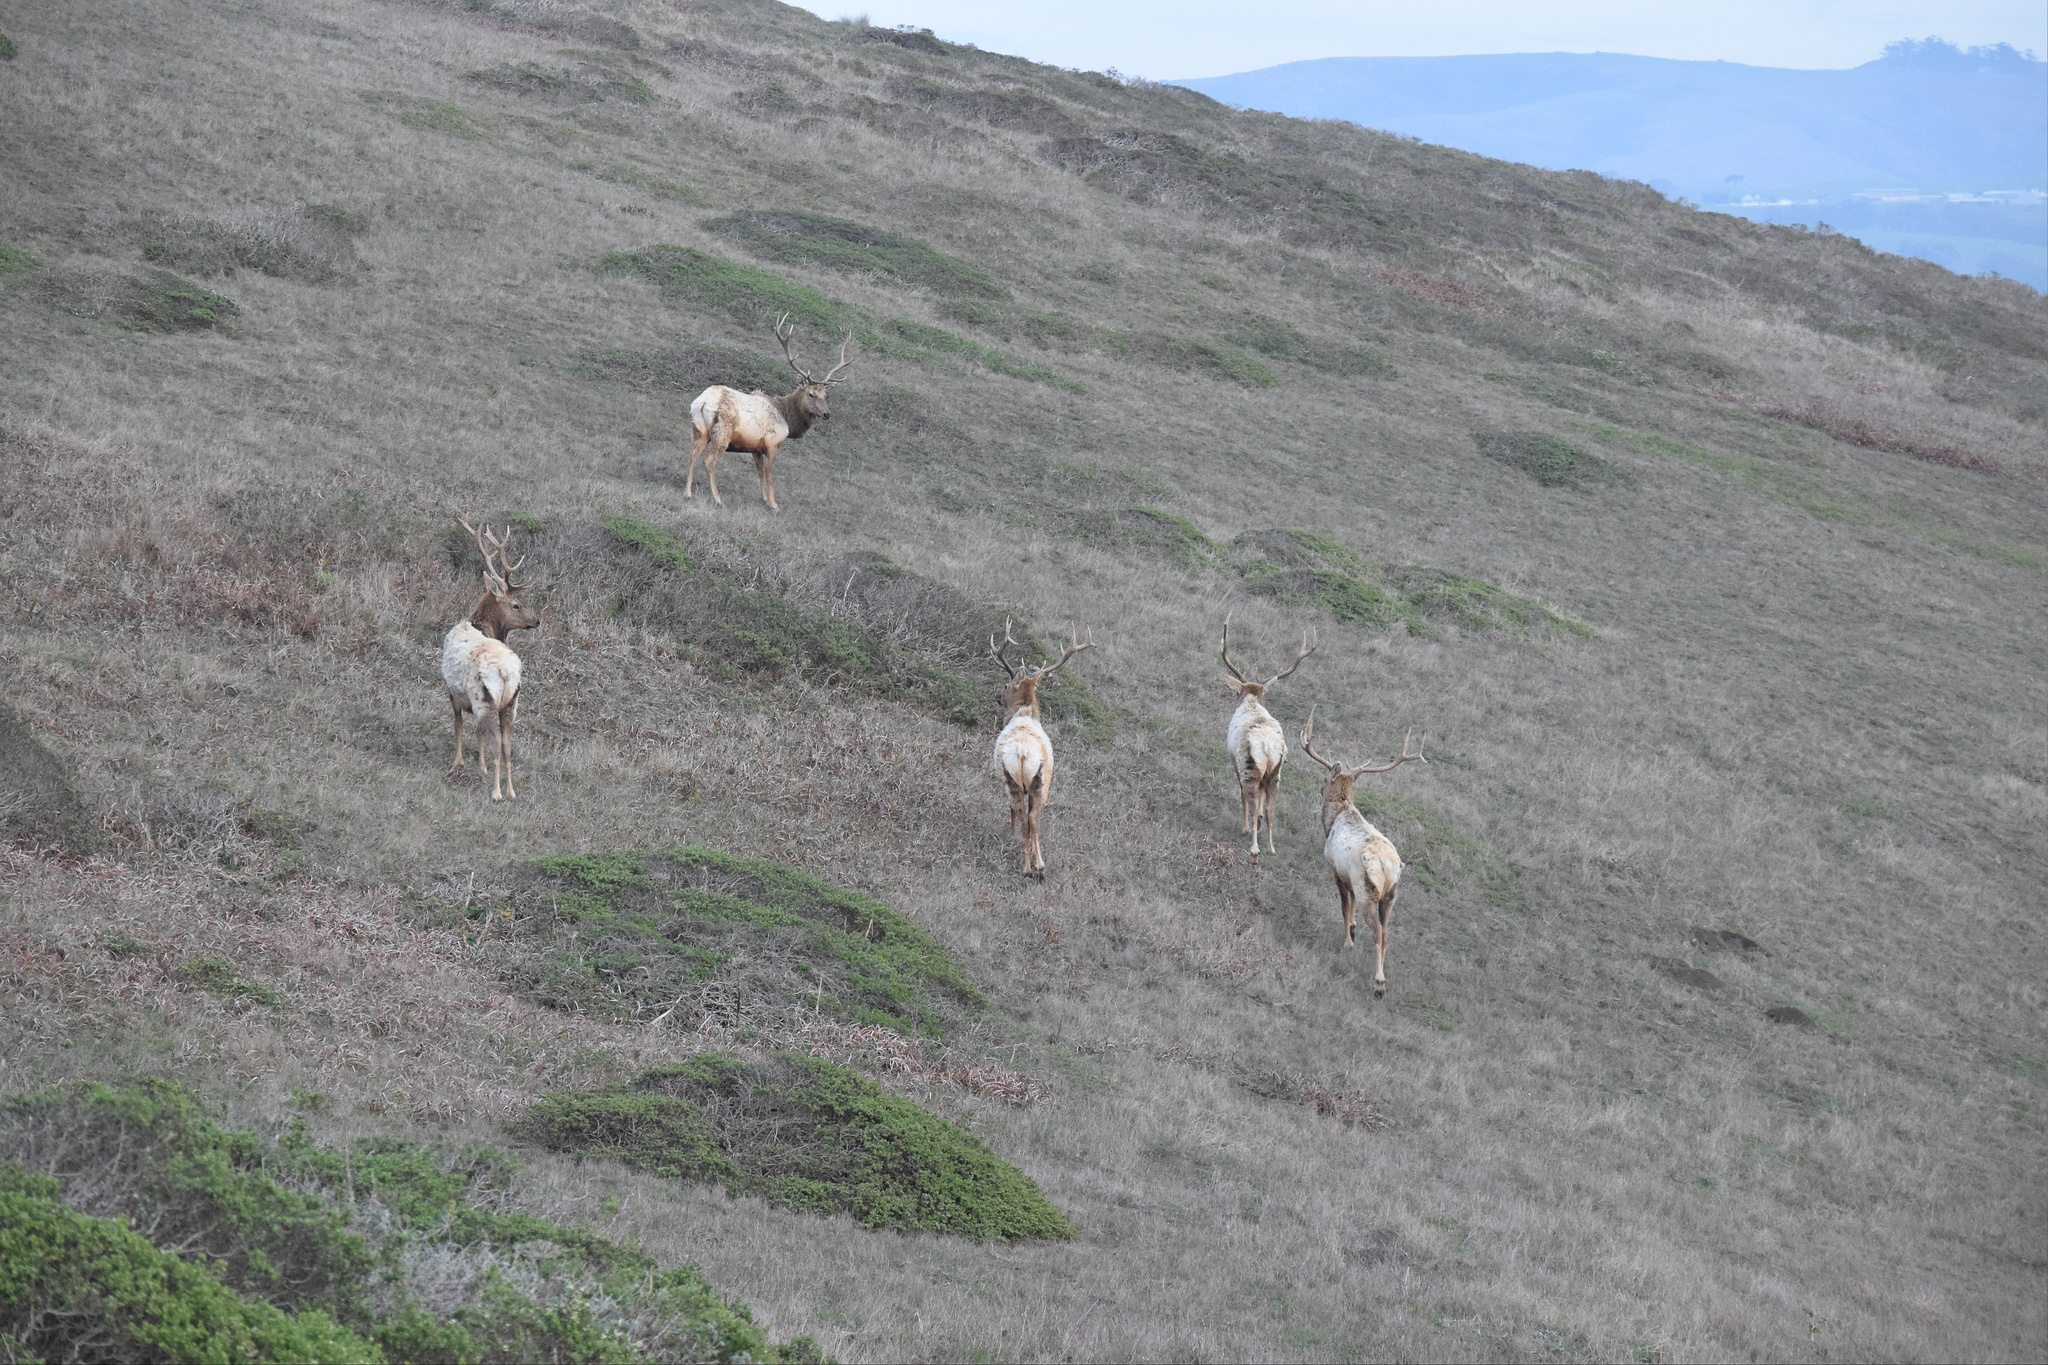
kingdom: Animalia
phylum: Chordata
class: Mammalia
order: Artiodactyla
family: Cervidae
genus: Cervus
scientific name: Cervus elaphus
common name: Red deer
